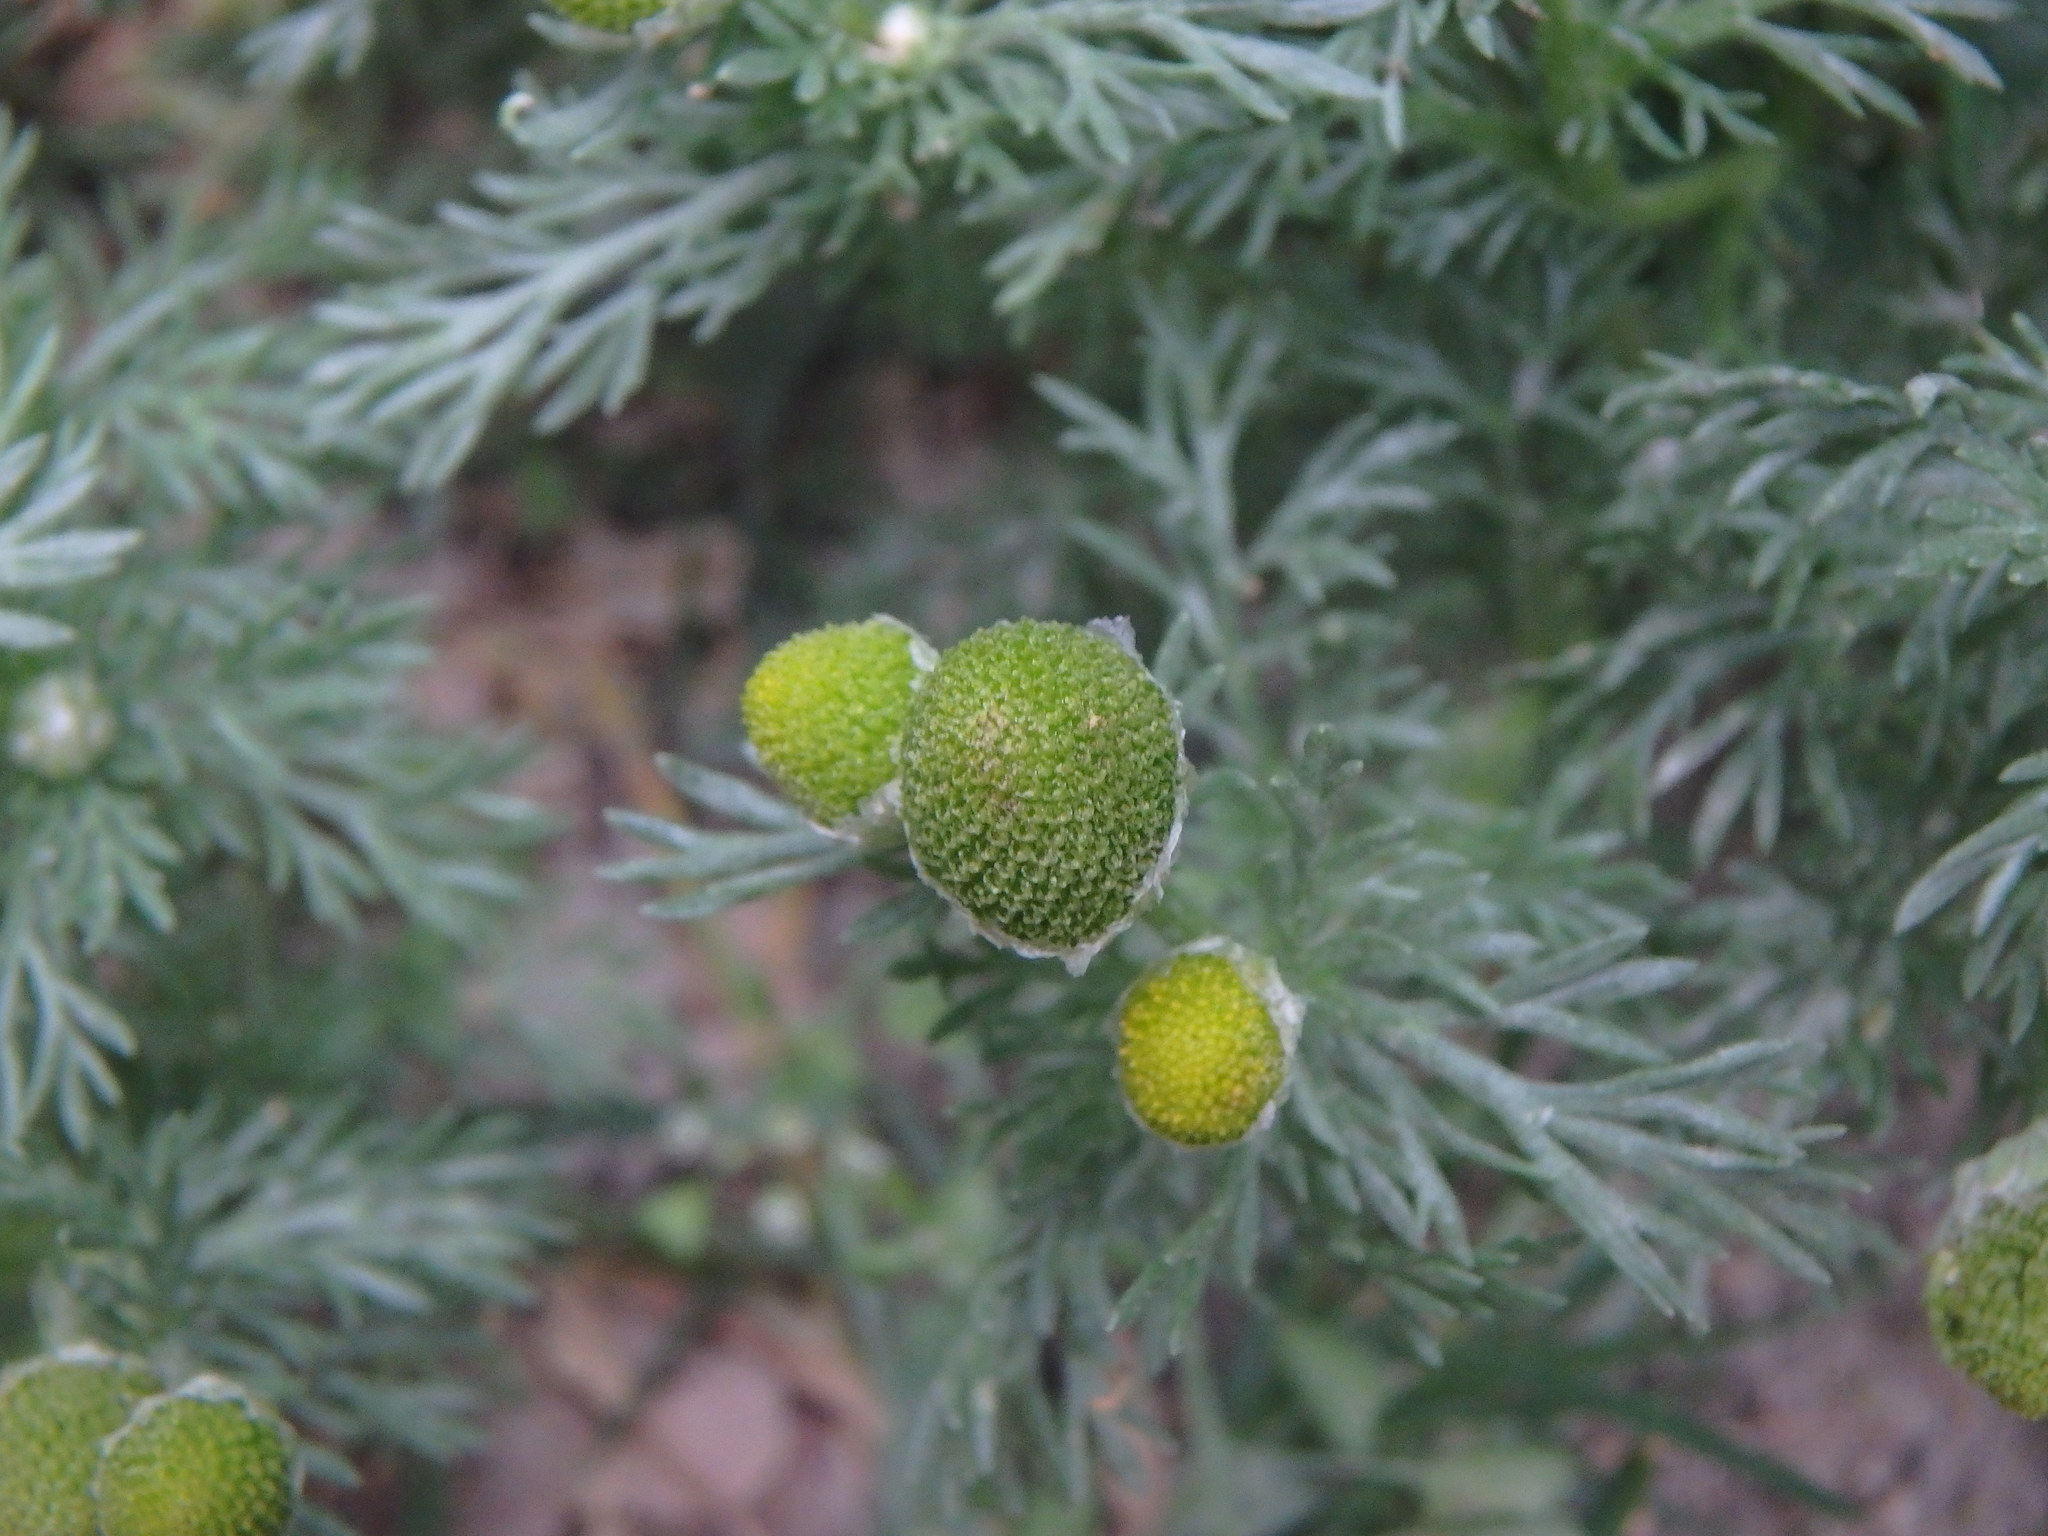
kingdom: Plantae
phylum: Tracheophyta
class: Magnoliopsida
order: Asterales
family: Asteraceae
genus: Matricaria
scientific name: Matricaria discoidea
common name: Disc mayweed
